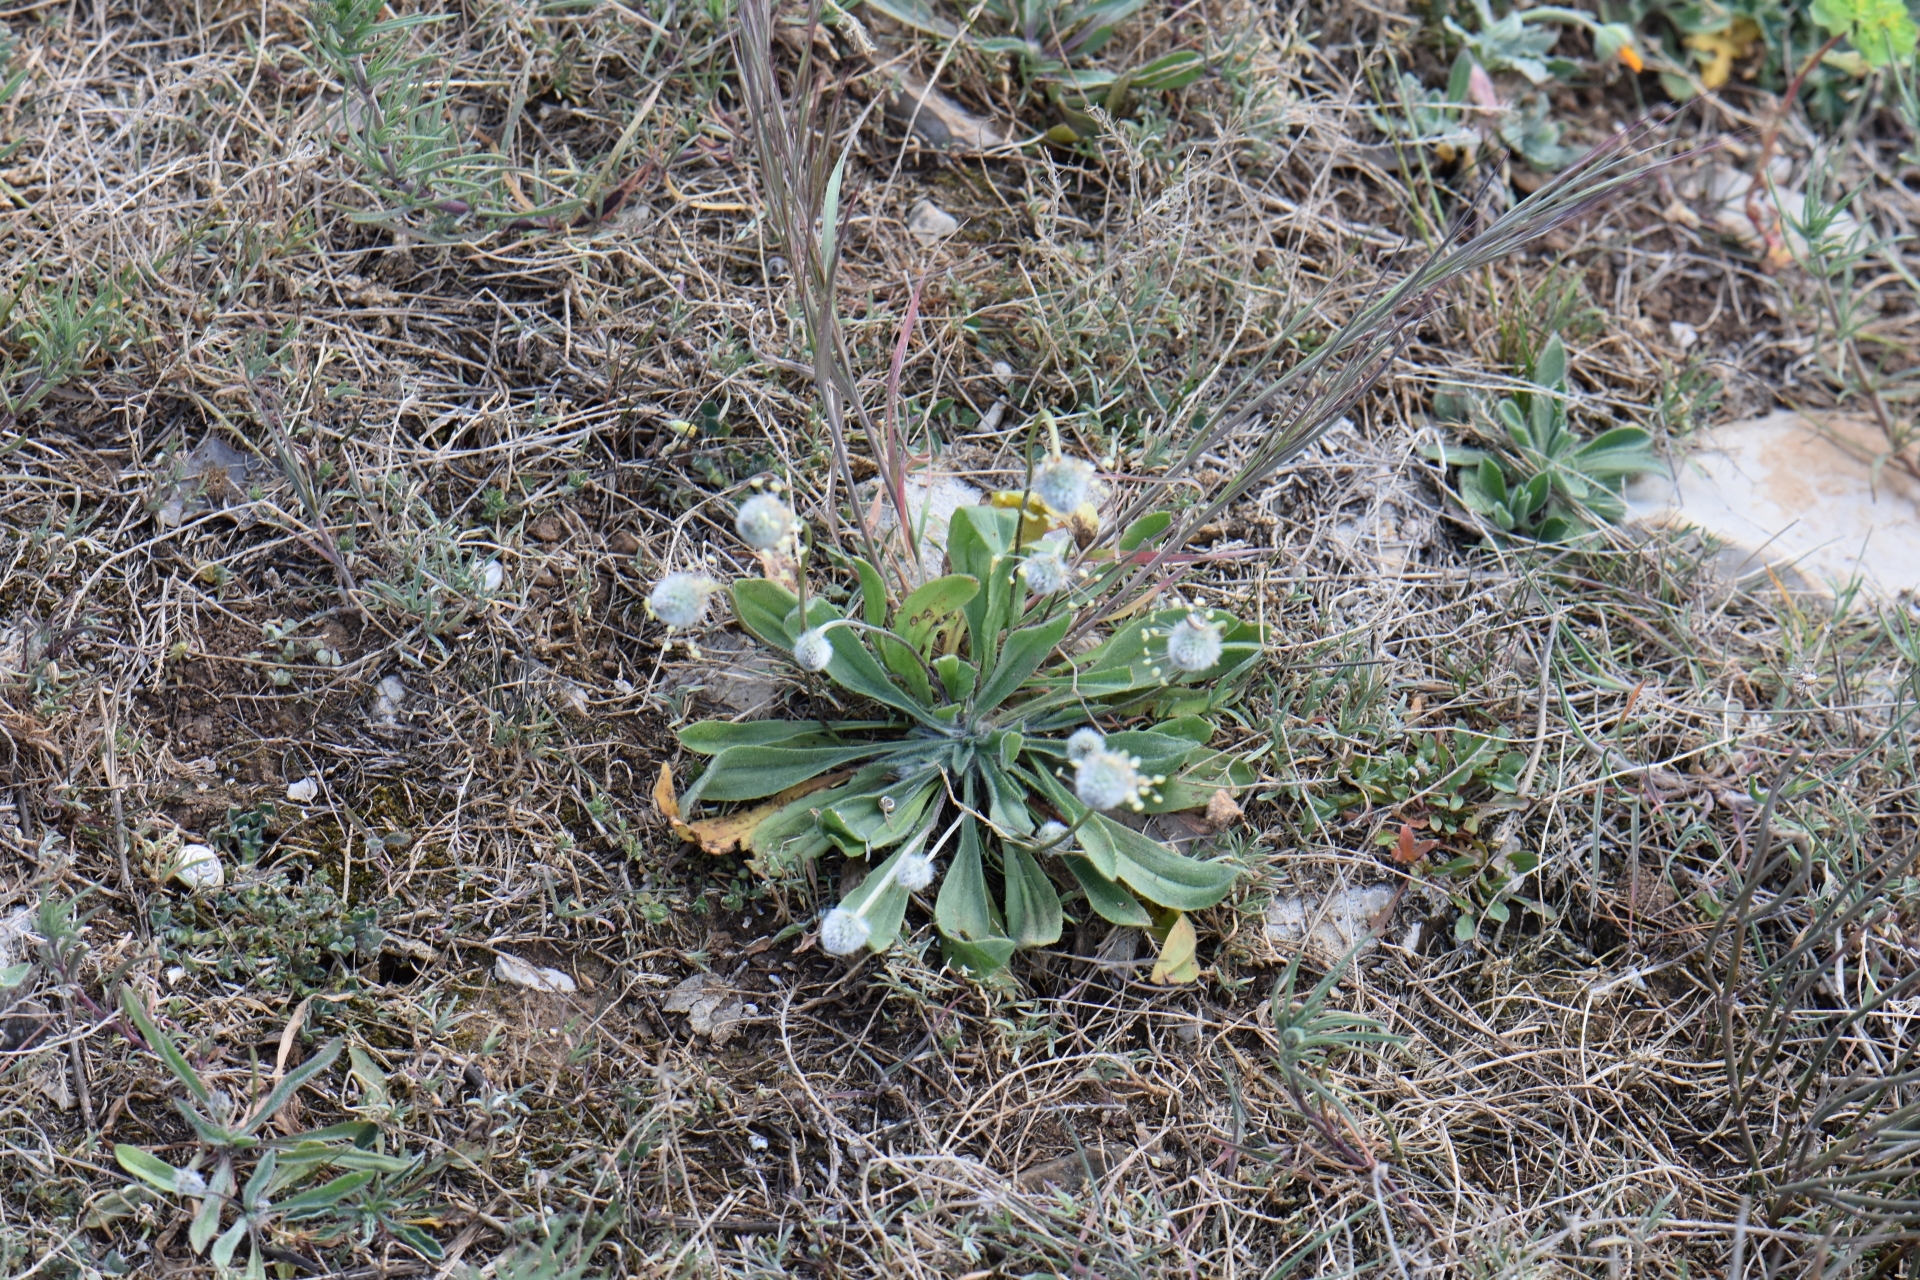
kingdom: Plantae
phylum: Tracheophyta
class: Magnoliopsida
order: Lamiales
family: Plantaginaceae
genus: Plantago
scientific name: Plantago lagopus
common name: Hare-foot plantain
